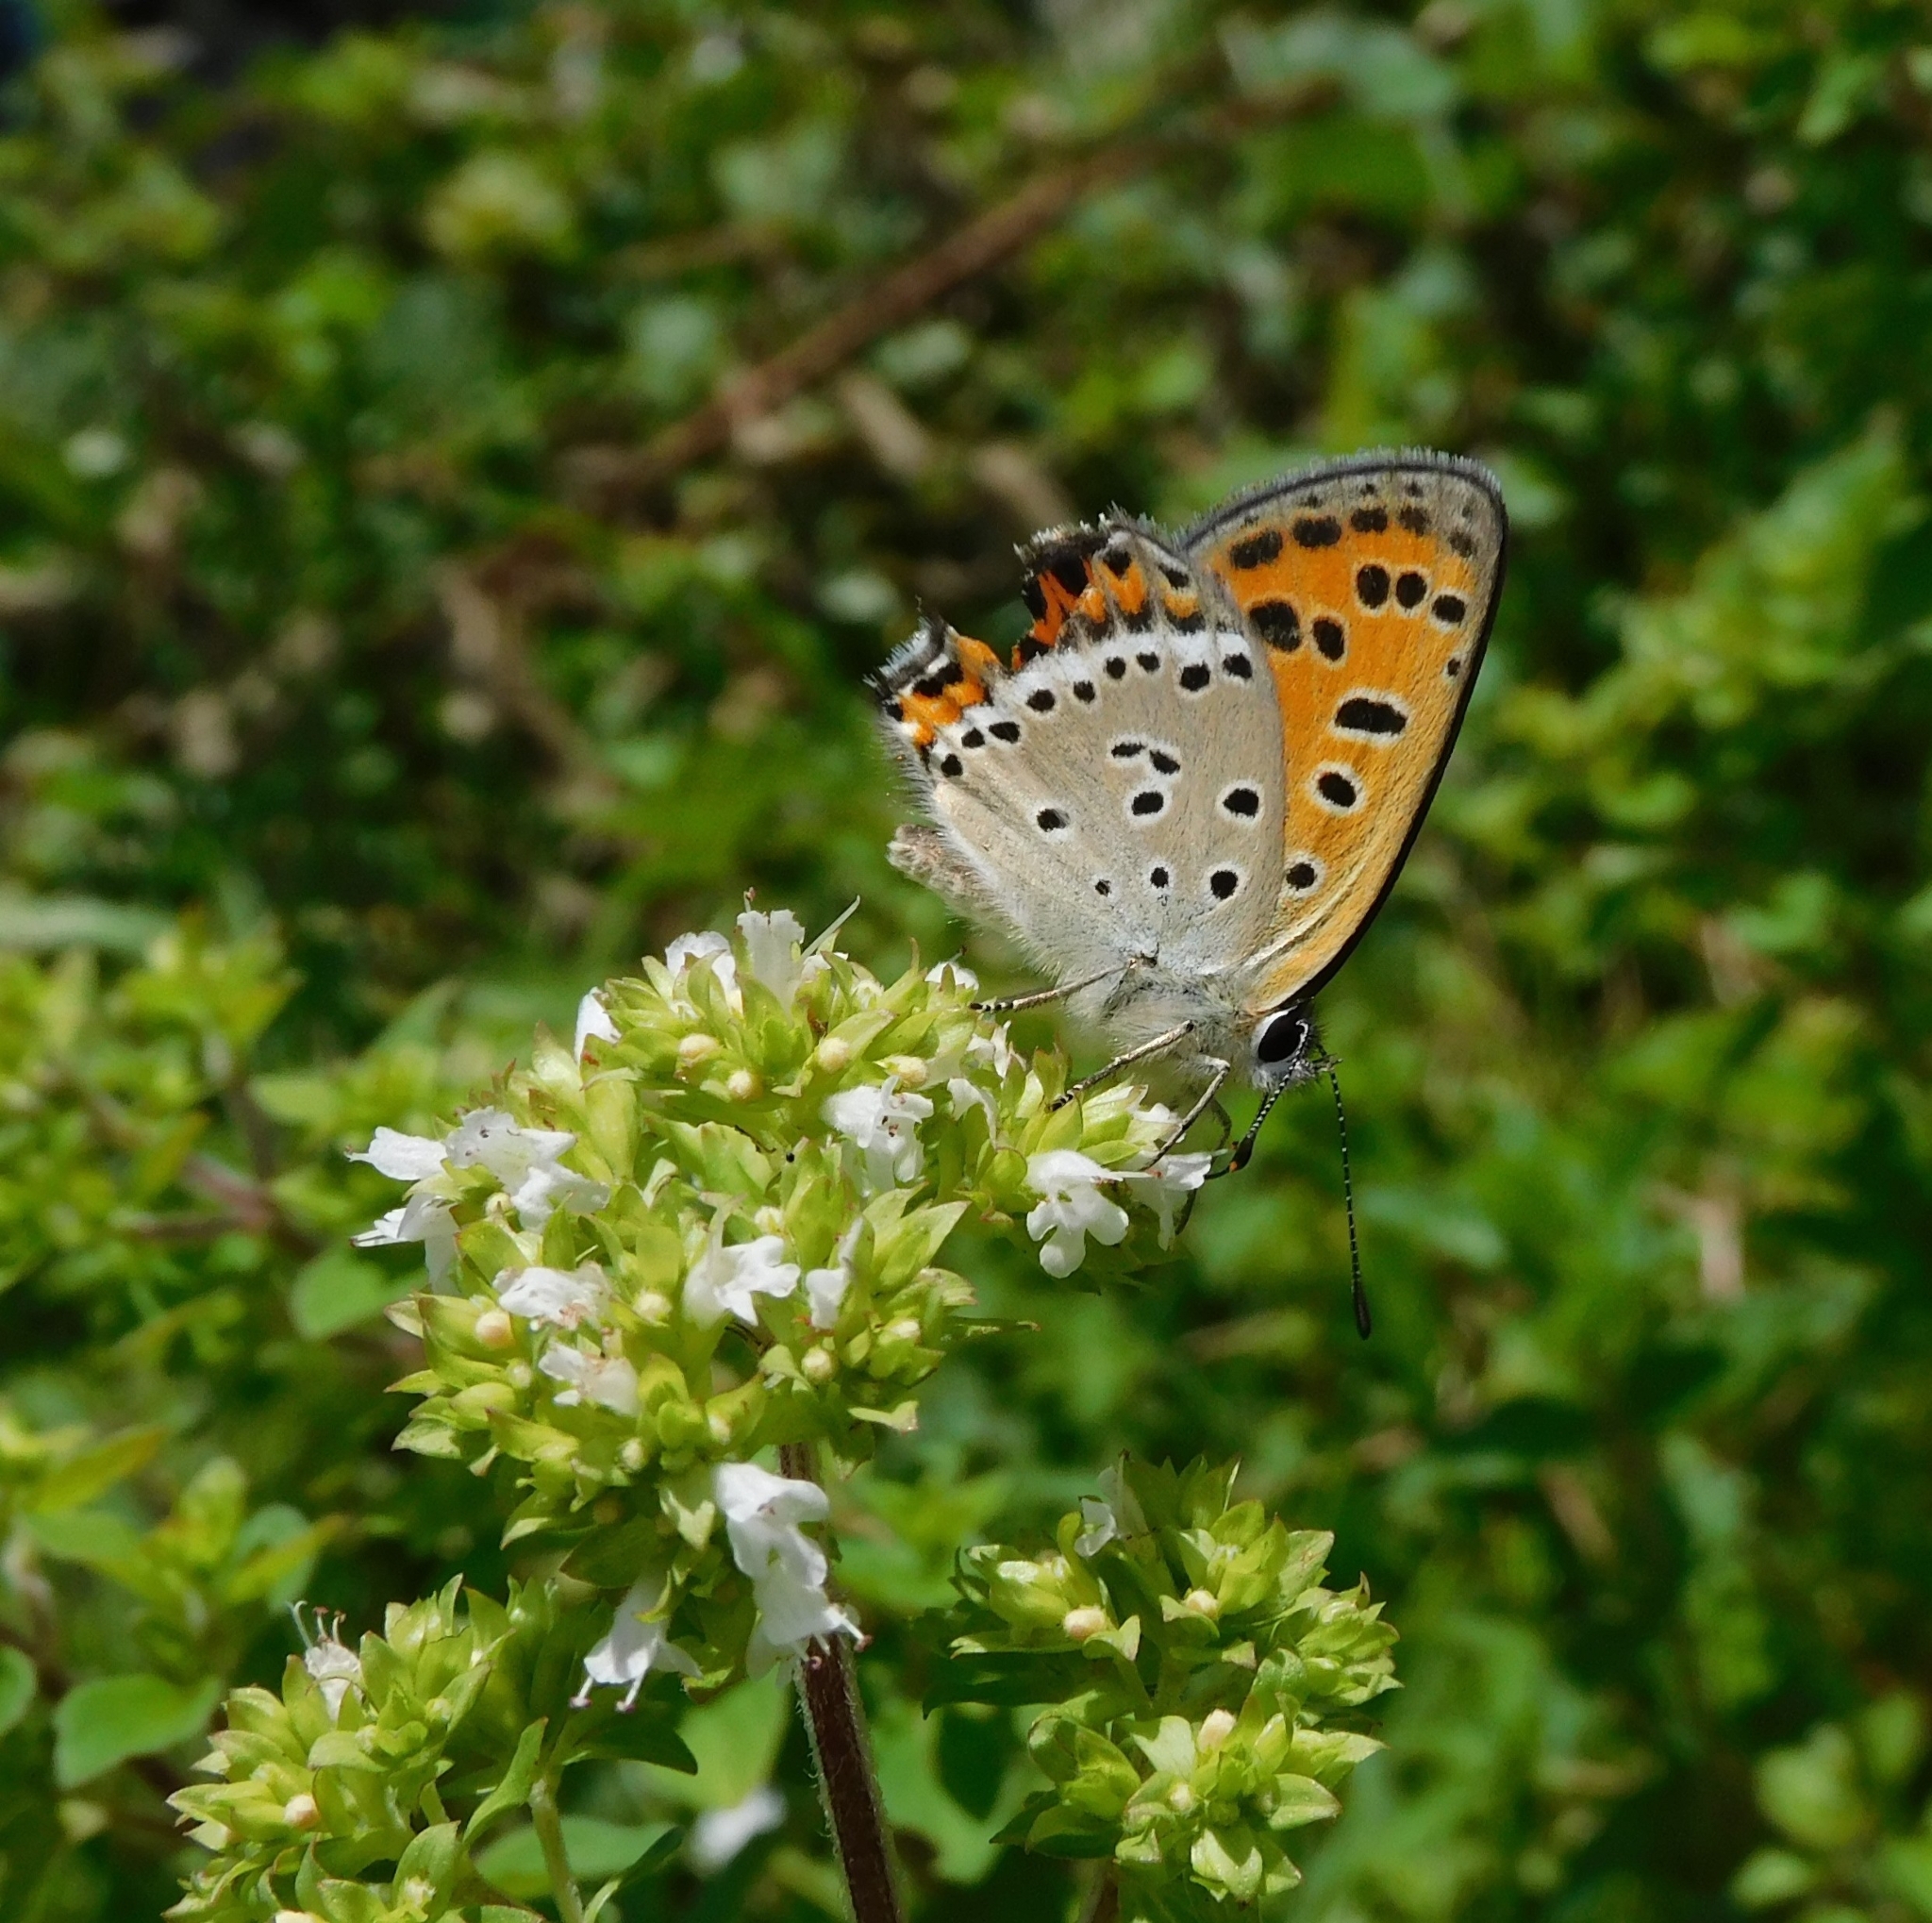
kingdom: Animalia
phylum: Arthropoda
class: Insecta
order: Lepidoptera
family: Lycaenidae
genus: Lycaena
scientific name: Lycaena panava
